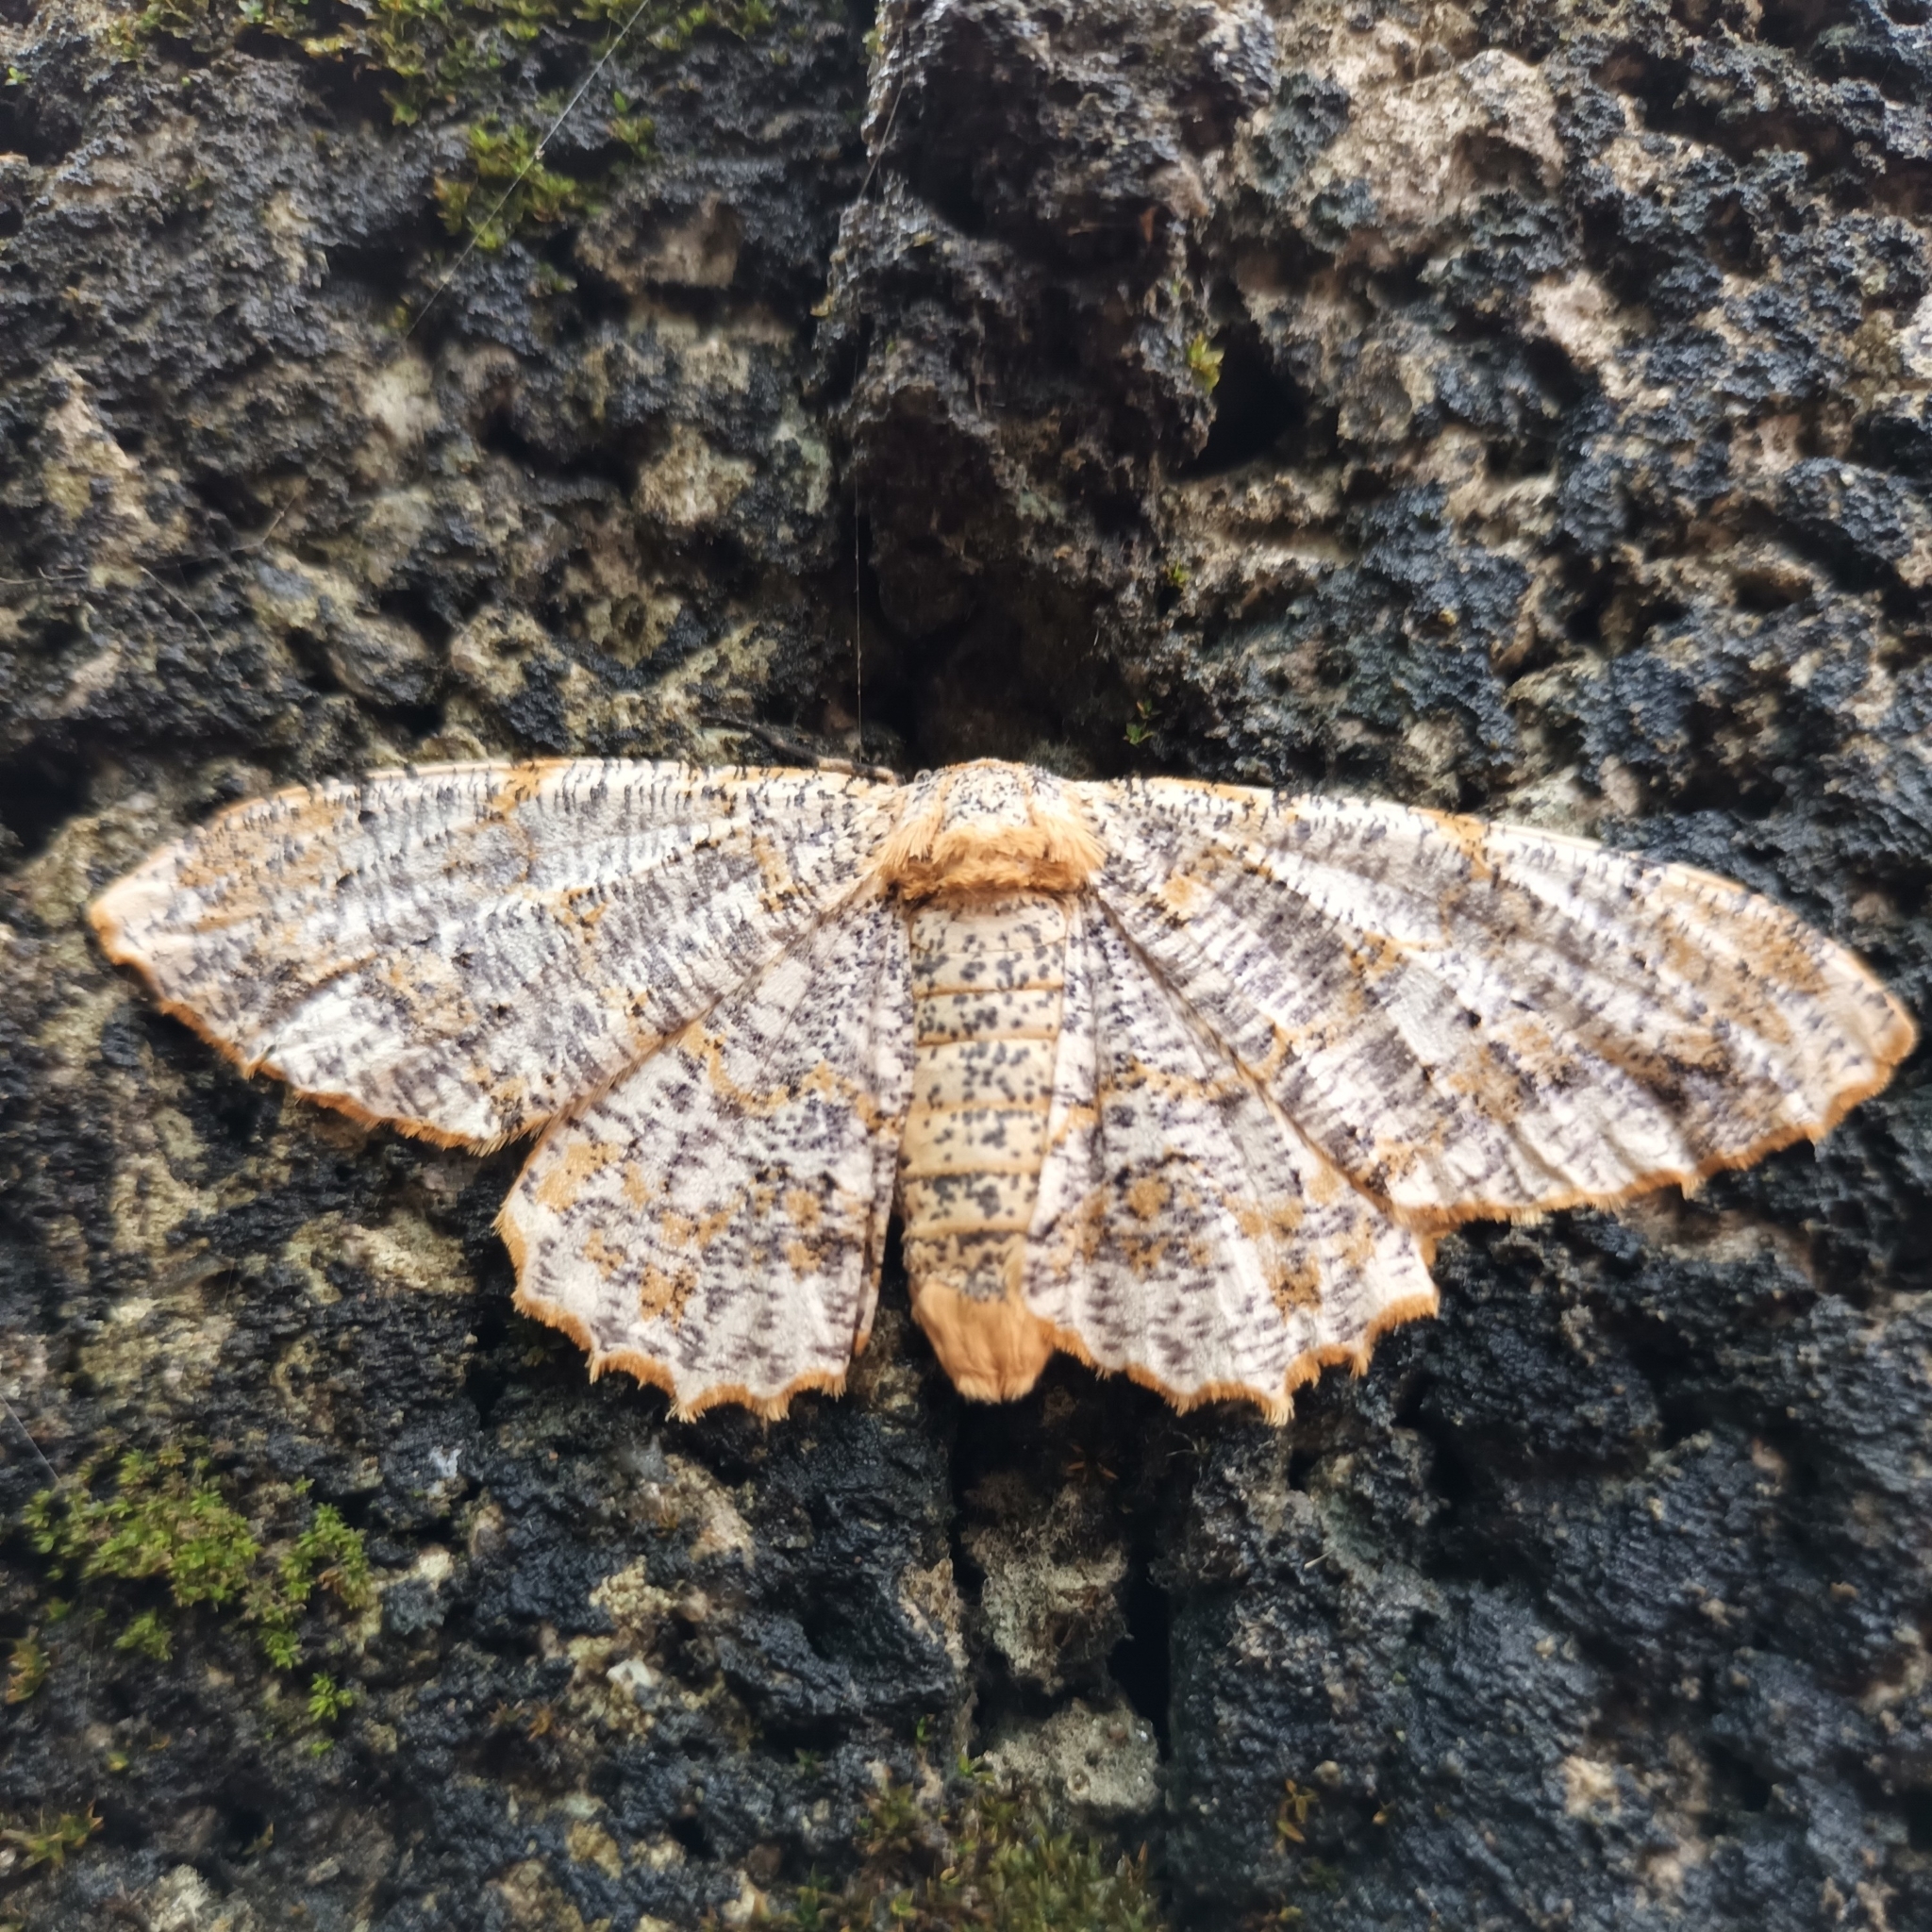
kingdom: Animalia
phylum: Arthropoda
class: Insecta
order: Lepidoptera
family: Geometridae
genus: Biston
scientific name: Biston suppressaria
